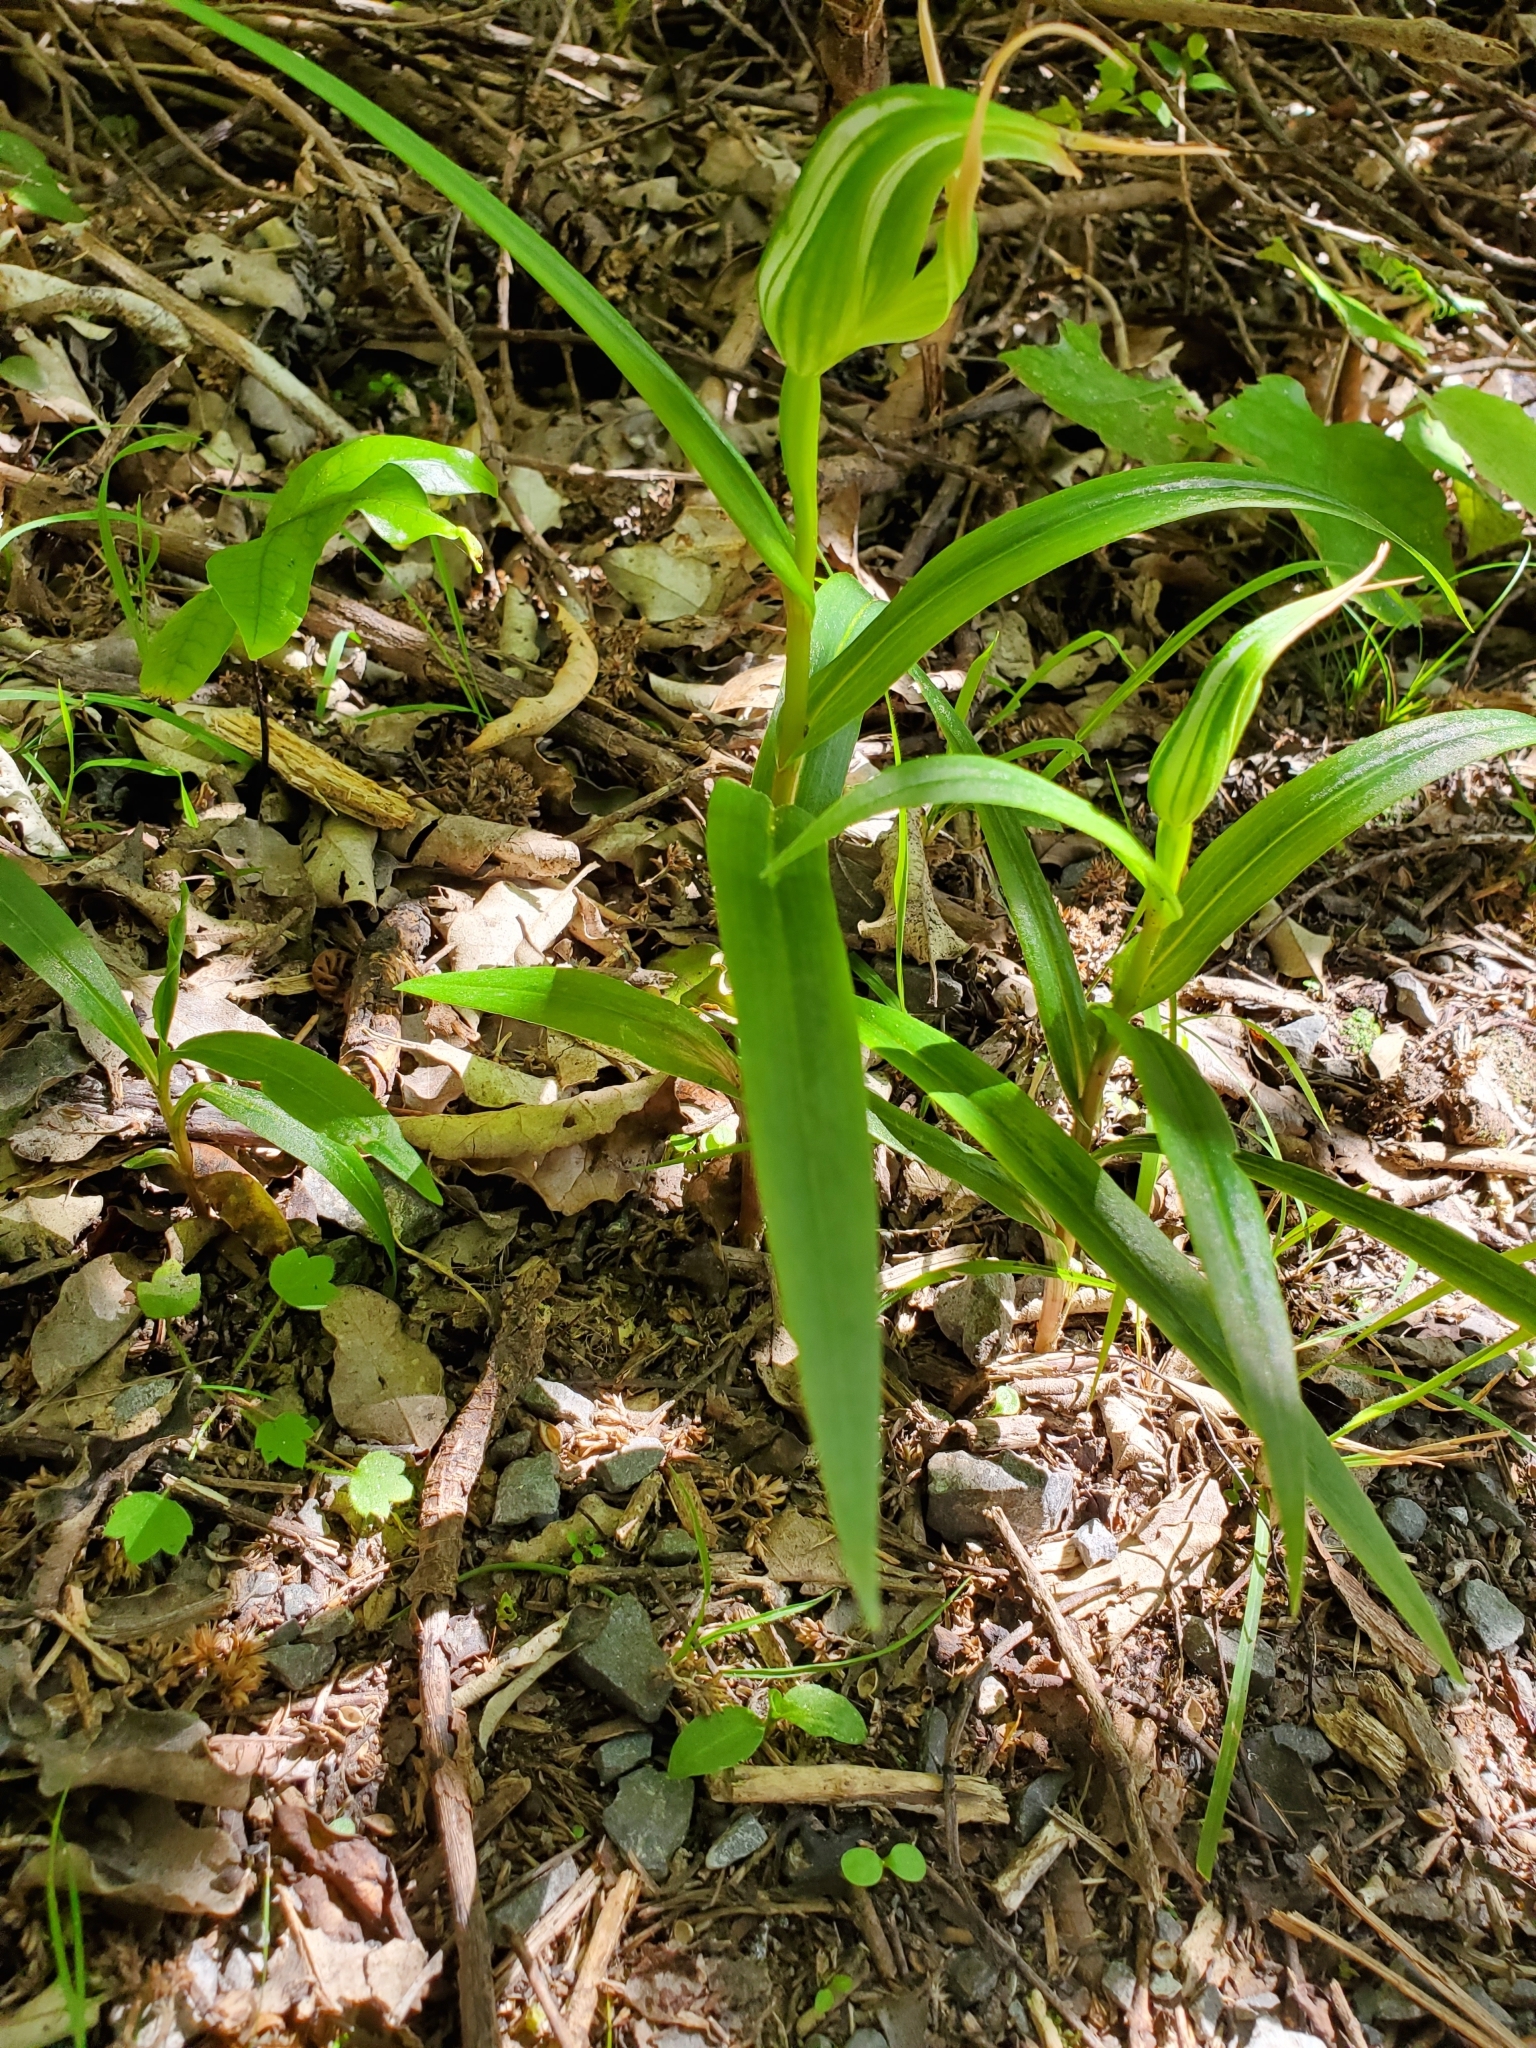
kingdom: Plantae
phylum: Tracheophyta
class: Liliopsida
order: Asparagales
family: Orchidaceae
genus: Pterostylis
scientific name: Pterostylis banksii
